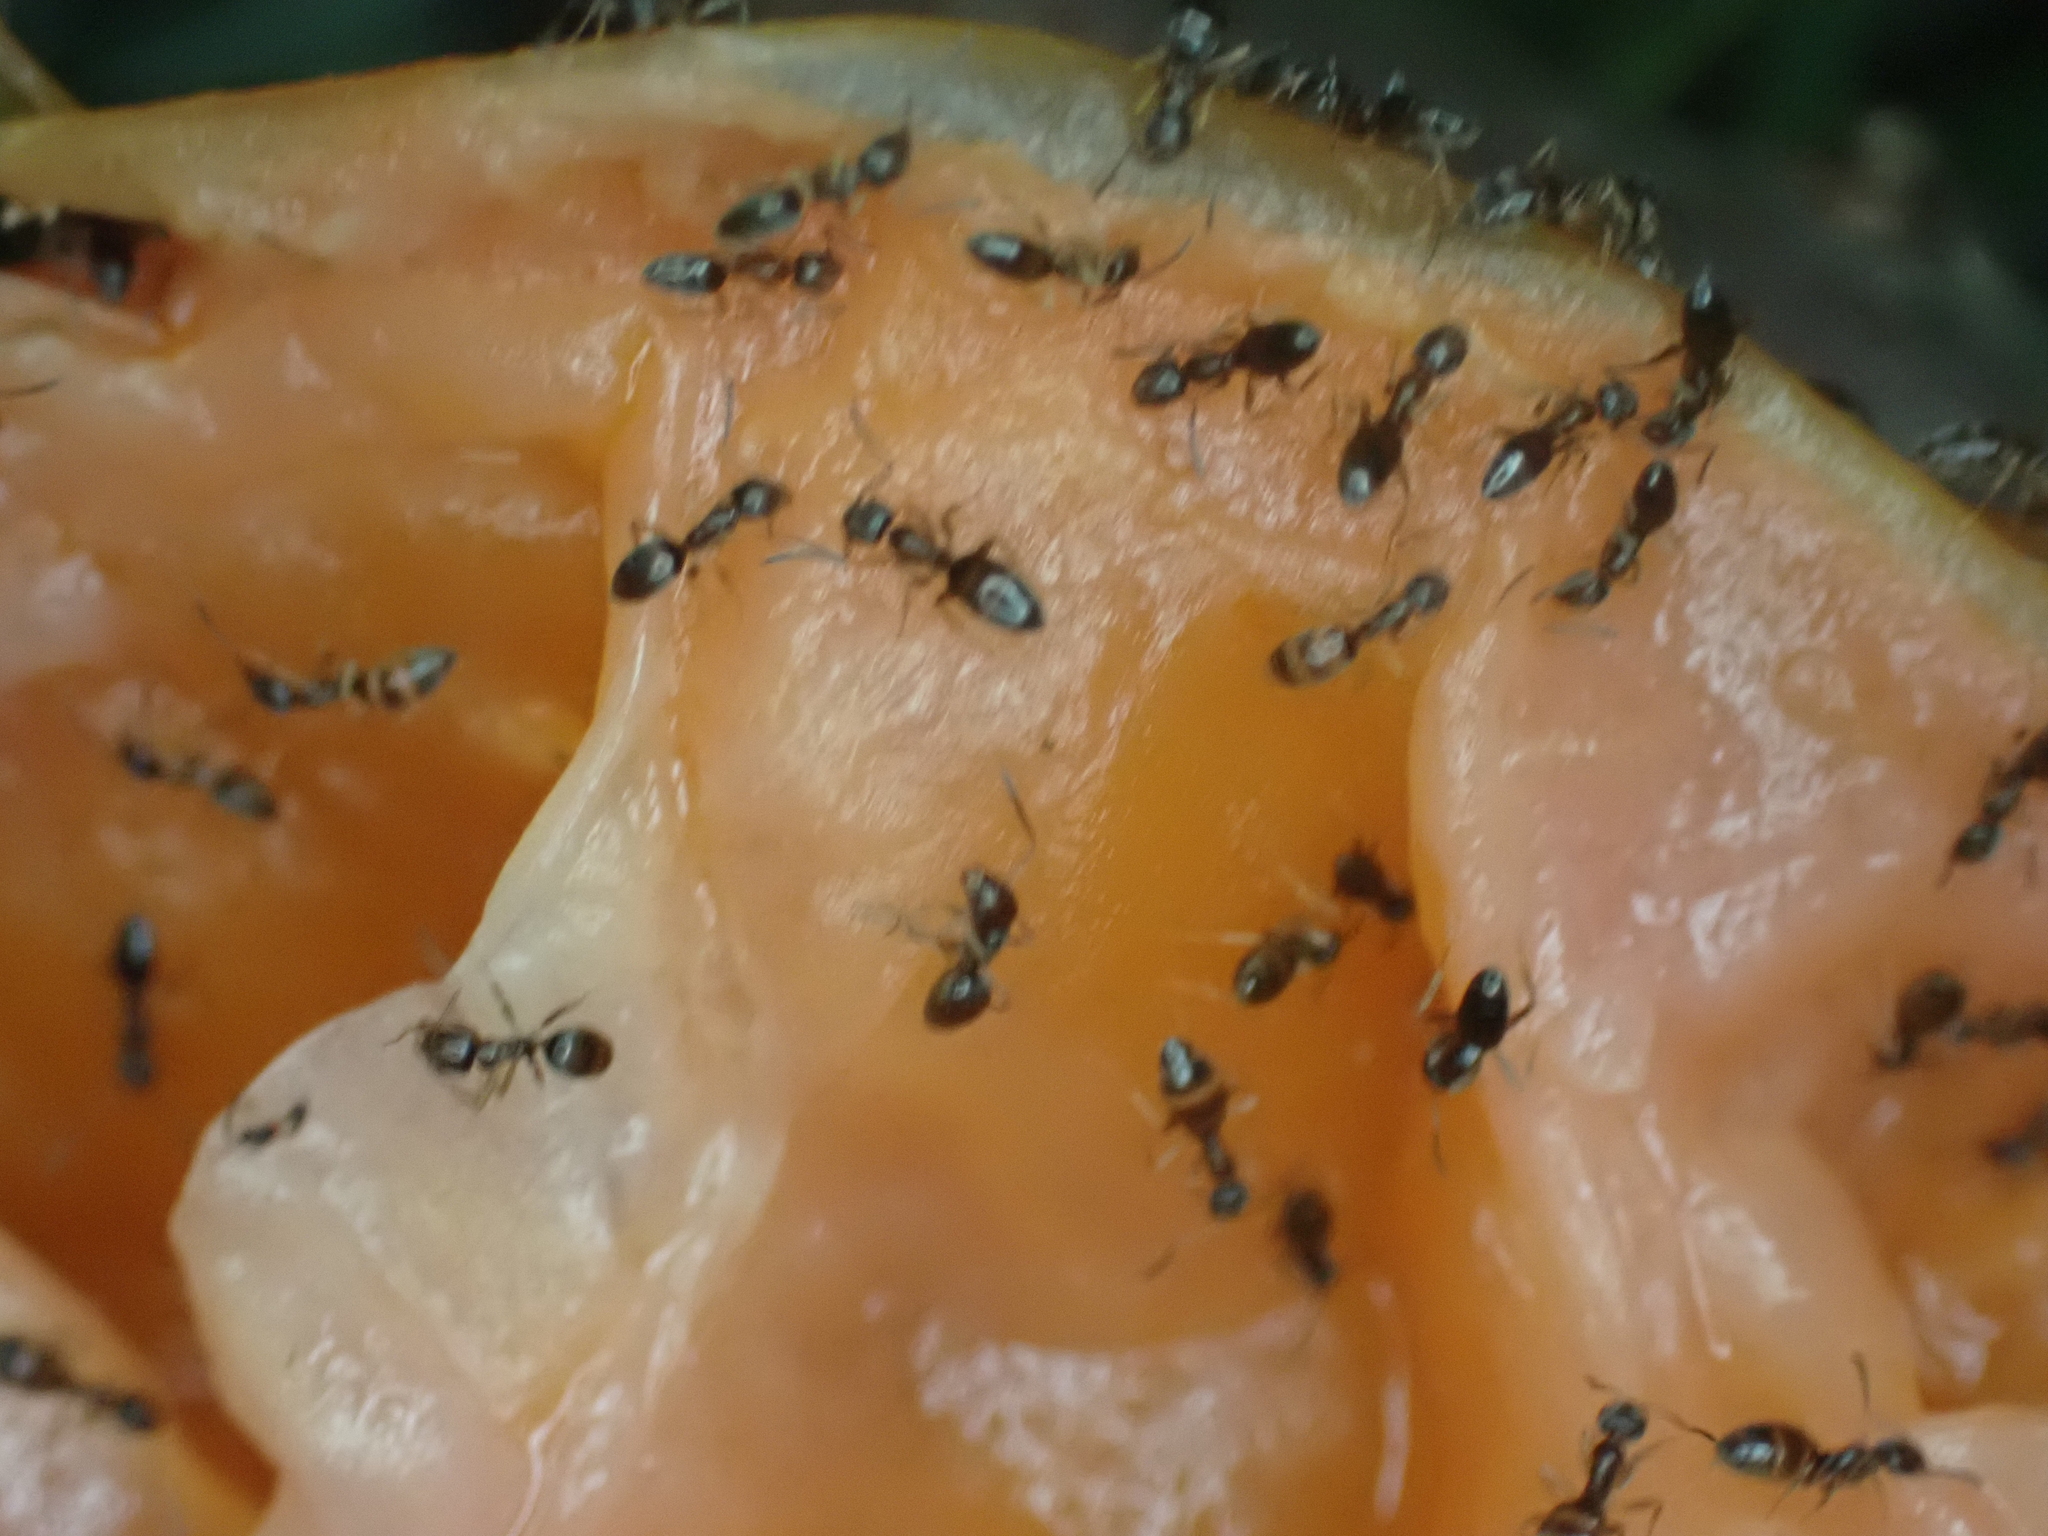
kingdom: Animalia
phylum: Arthropoda
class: Insecta
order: Hymenoptera
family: Formicidae
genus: Tapinoma
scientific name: Tapinoma sessile
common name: Odorous house ant
